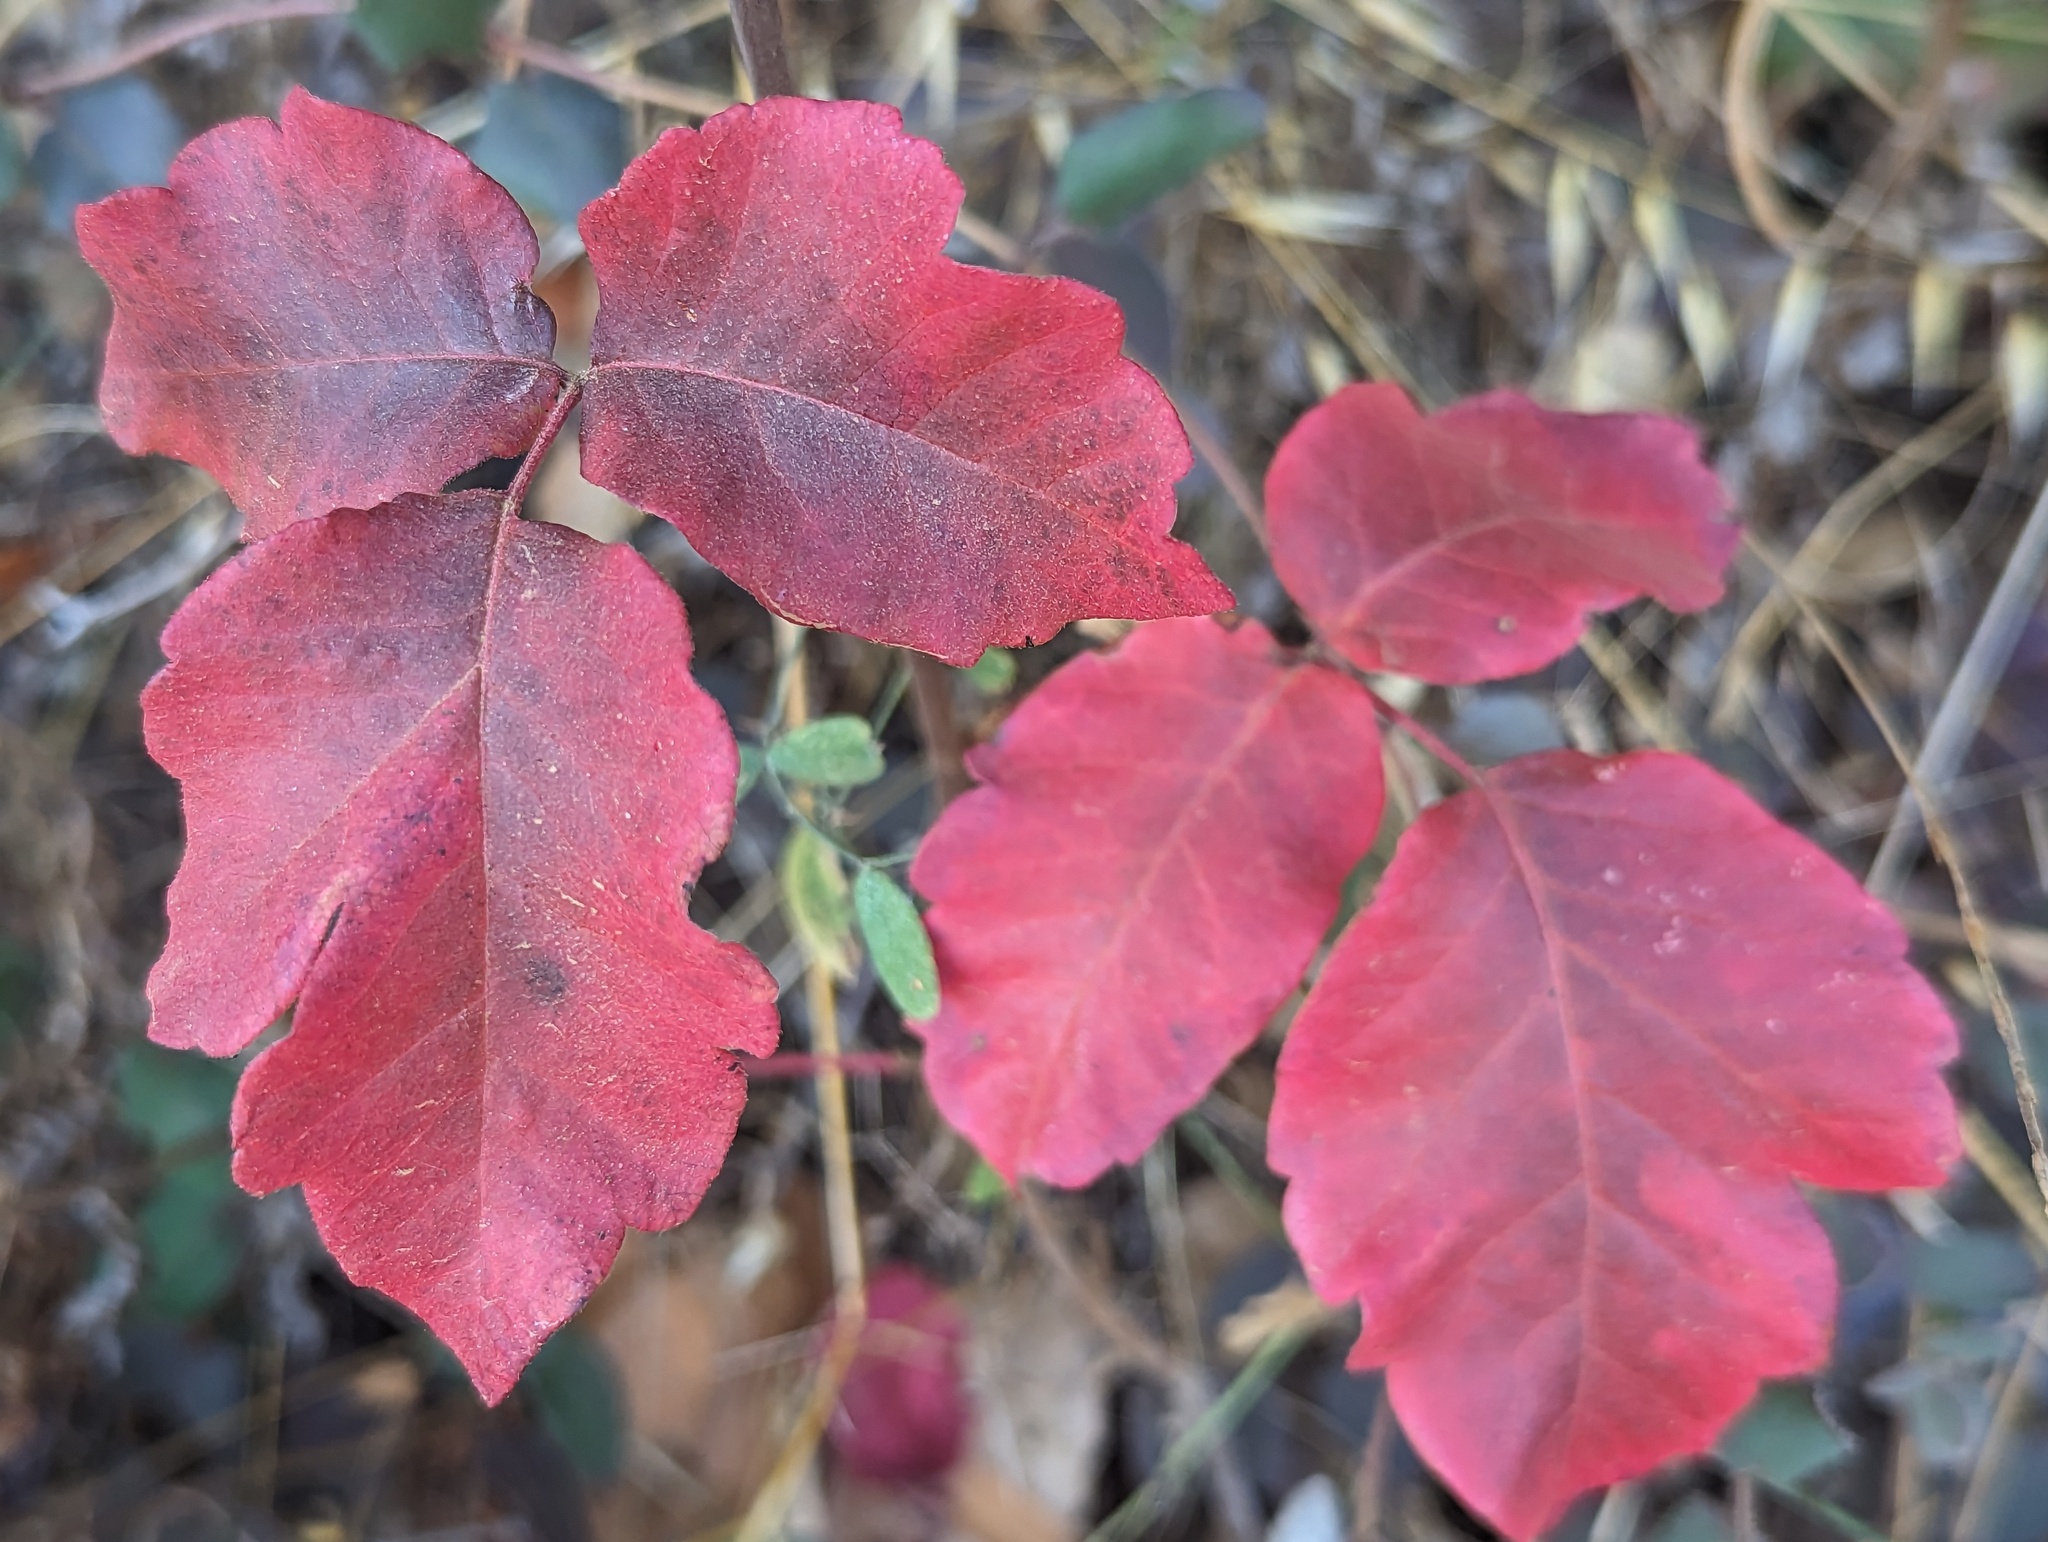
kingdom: Plantae
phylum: Tracheophyta
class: Magnoliopsida
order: Sapindales
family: Anacardiaceae
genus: Toxicodendron
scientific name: Toxicodendron diversilobum
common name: Pacific poison-oak
